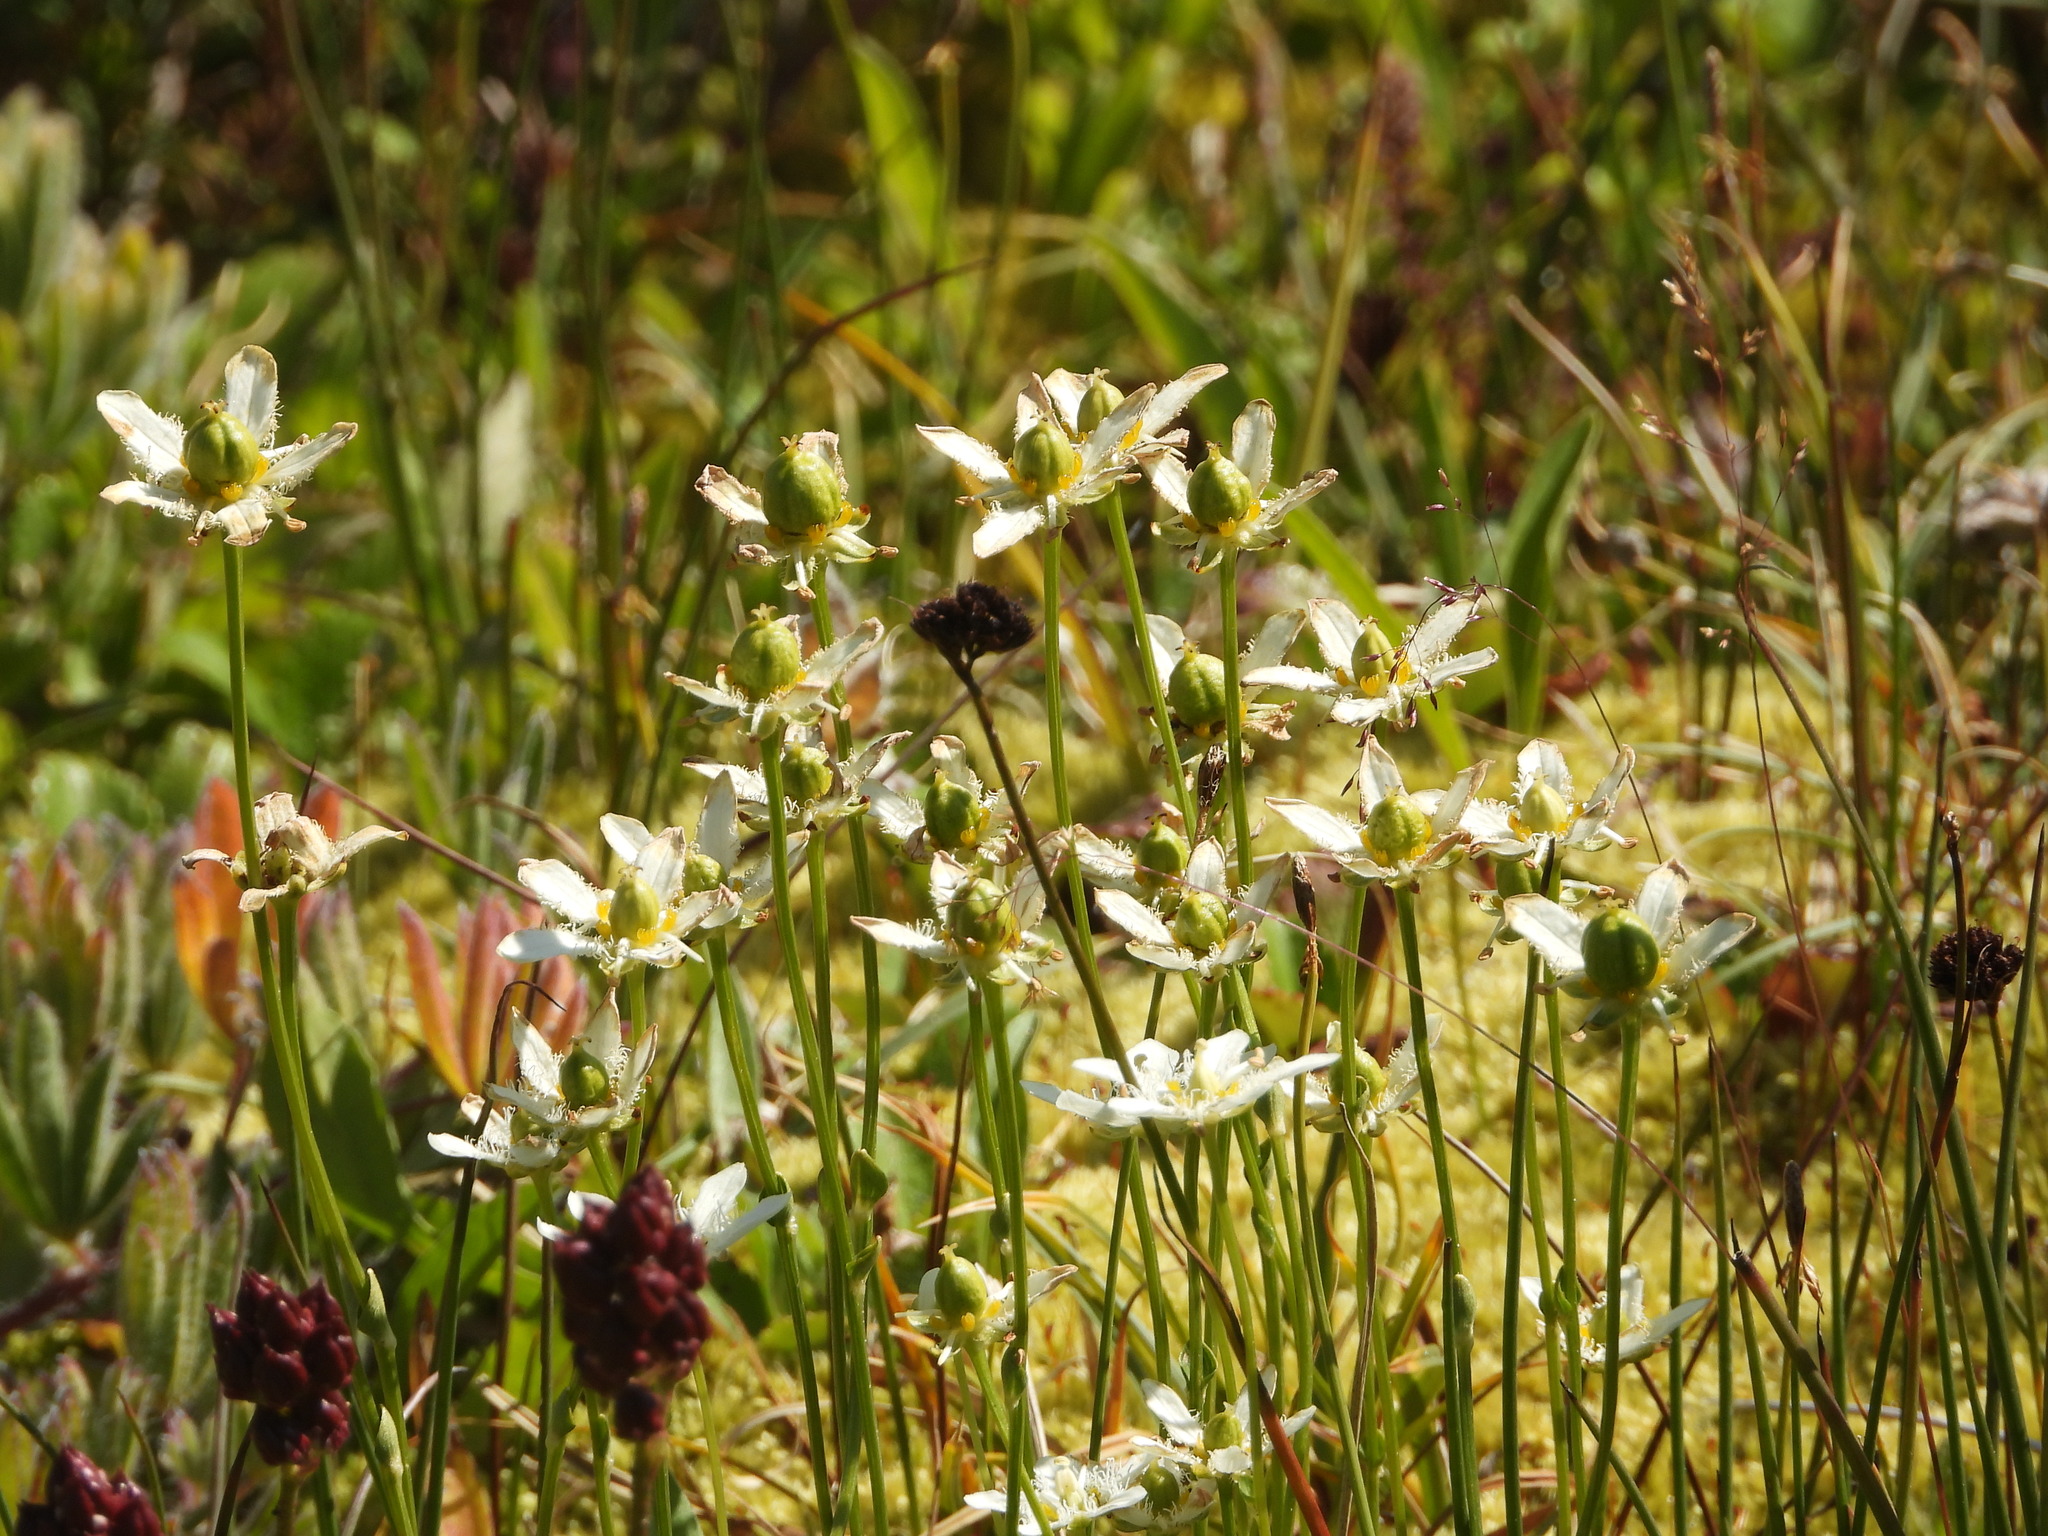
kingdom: Plantae
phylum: Tracheophyta
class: Magnoliopsida
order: Celastrales
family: Parnassiaceae
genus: Parnassia
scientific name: Parnassia fimbriata
